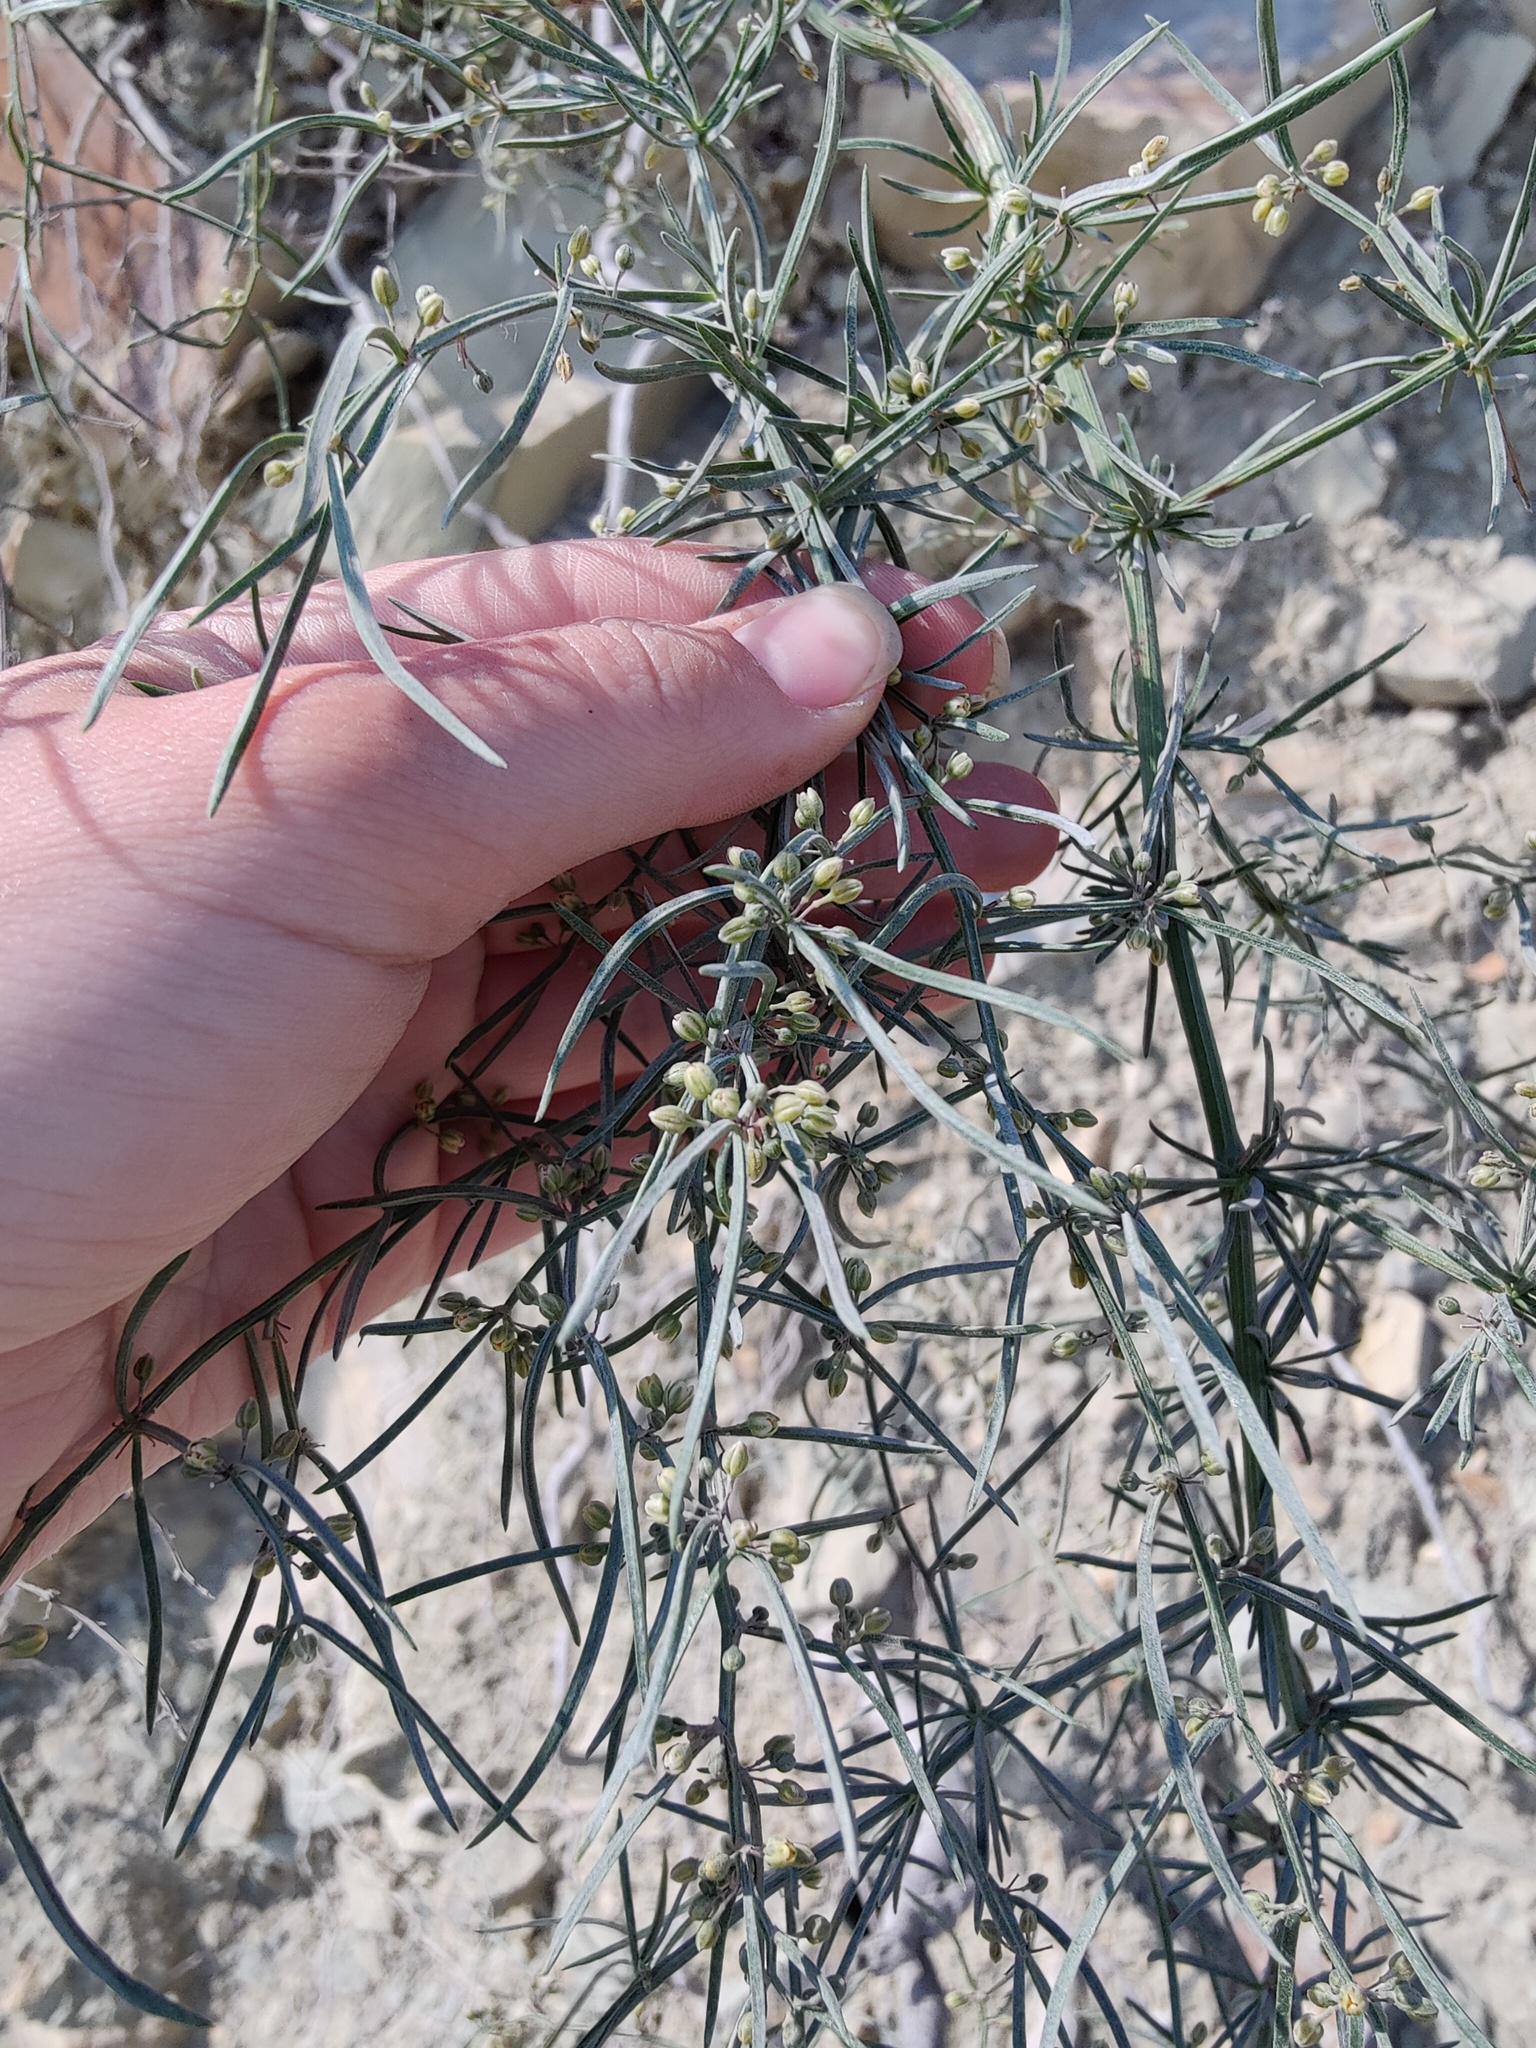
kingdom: Plantae
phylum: Tracheophyta
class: Liliopsida
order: Asparagales
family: Asparagaceae
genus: Asparagus
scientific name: Asparagus verticillatus
